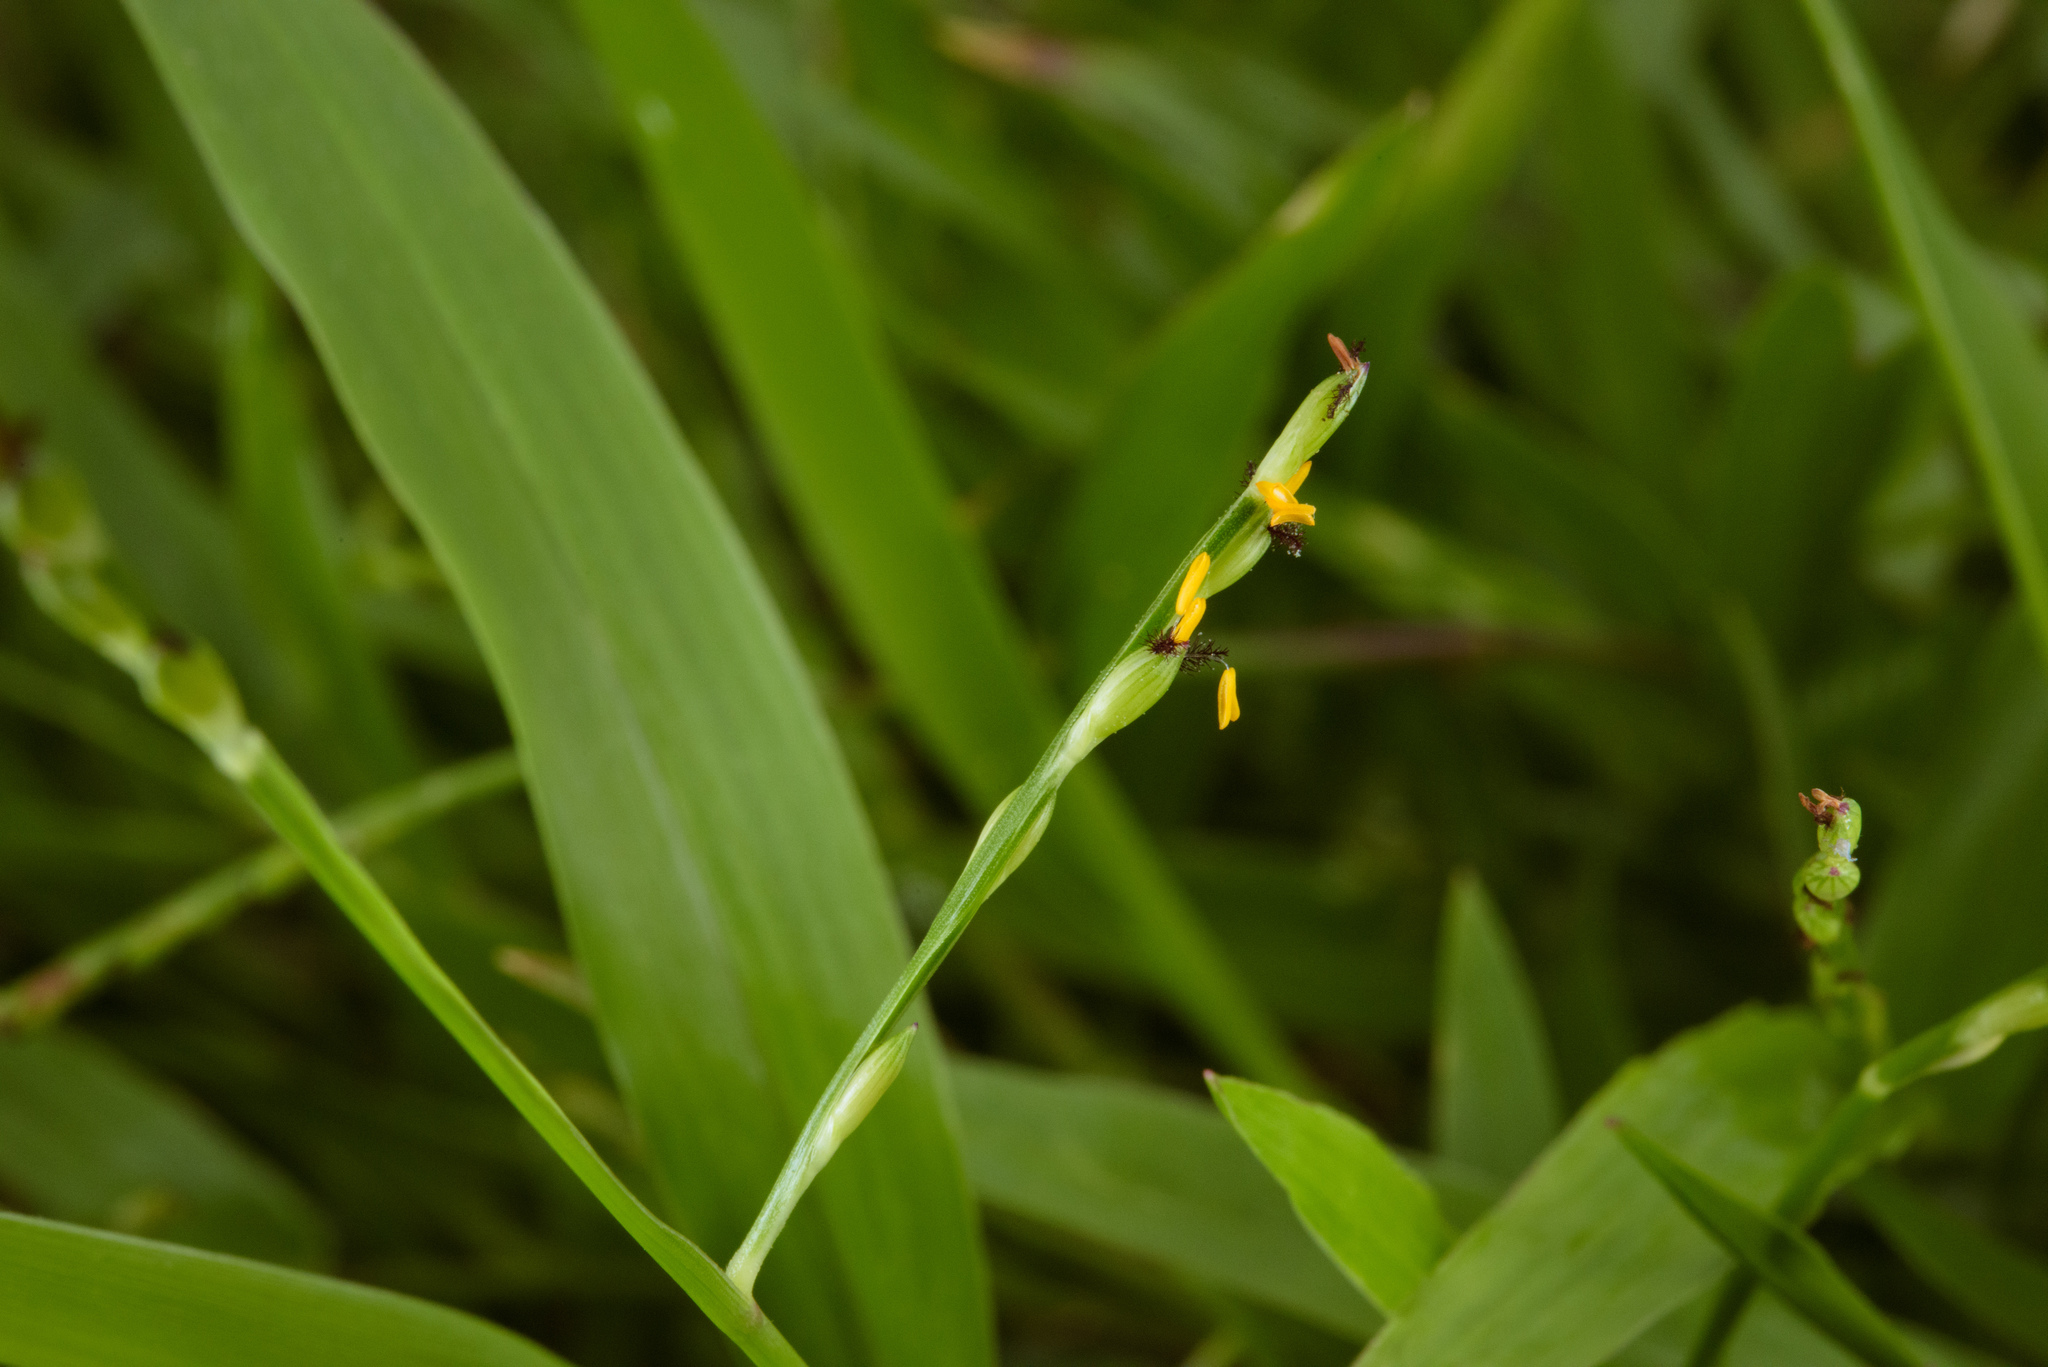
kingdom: Plantae
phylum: Tracheophyta
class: Liliopsida
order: Poales
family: Poaceae
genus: Urochloa
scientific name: Urochloa distachyos
